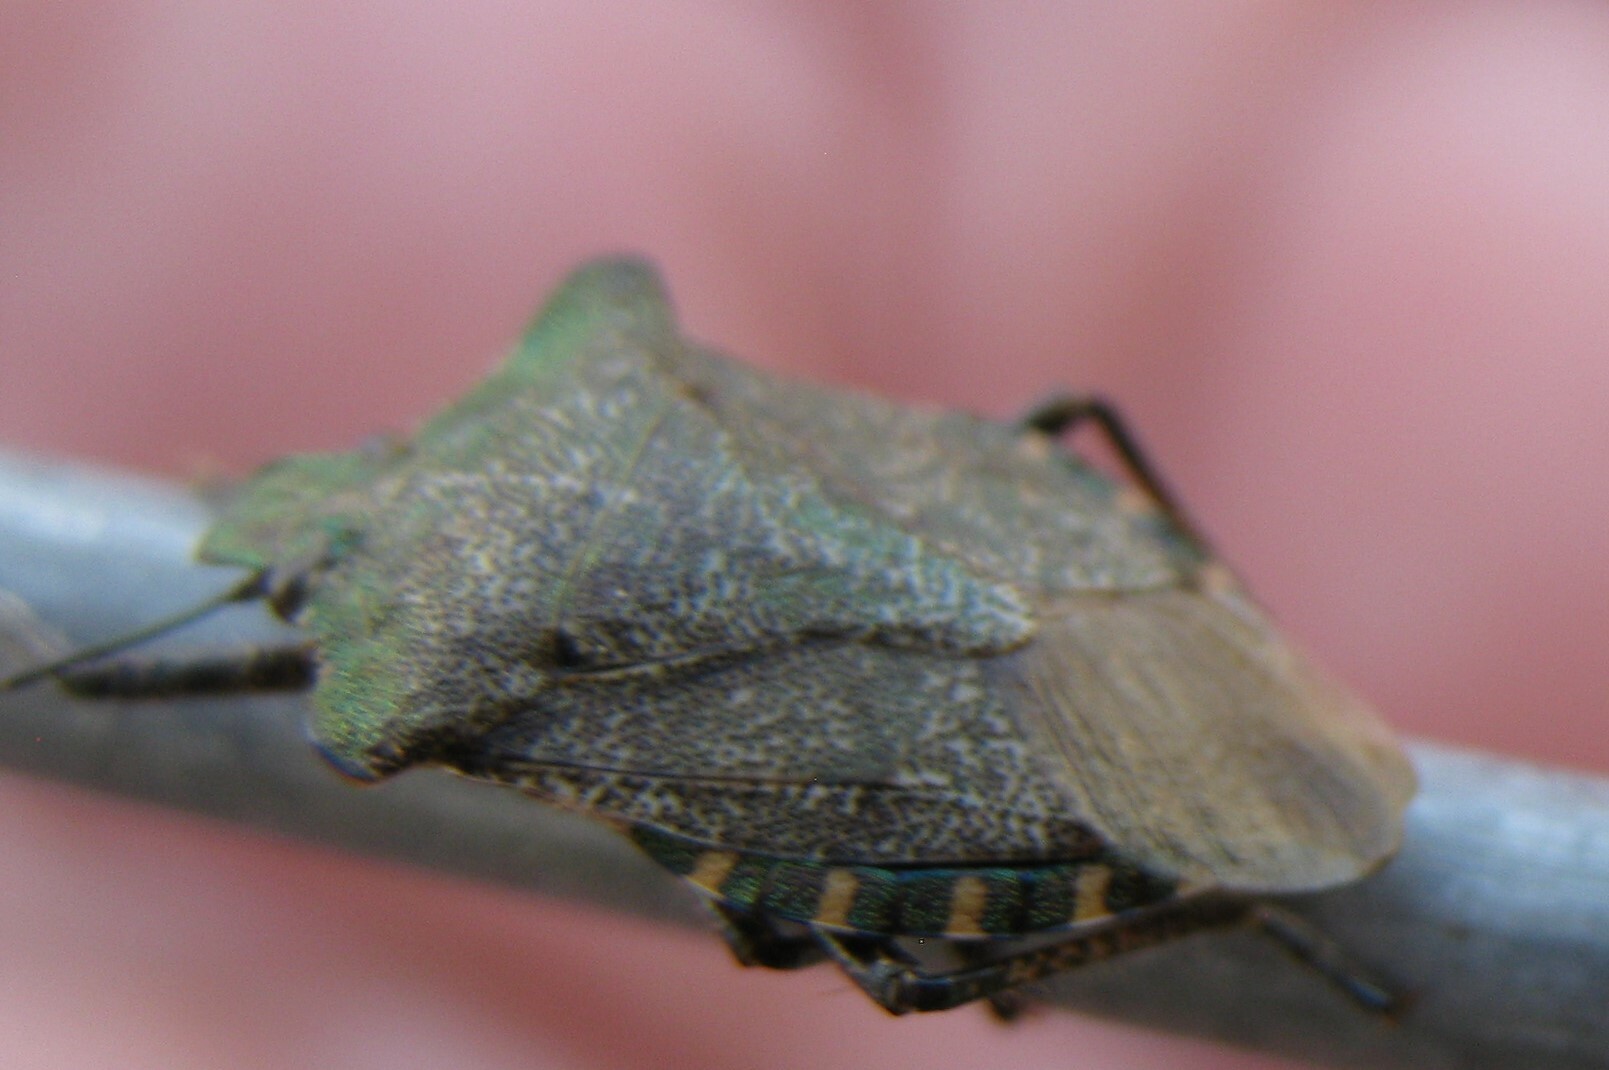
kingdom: Animalia
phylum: Arthropoda
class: Insecta
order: Hemiptera
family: Pentatomidae
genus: Troilus
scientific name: Troilus luridus
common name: Bronze shieldbug
